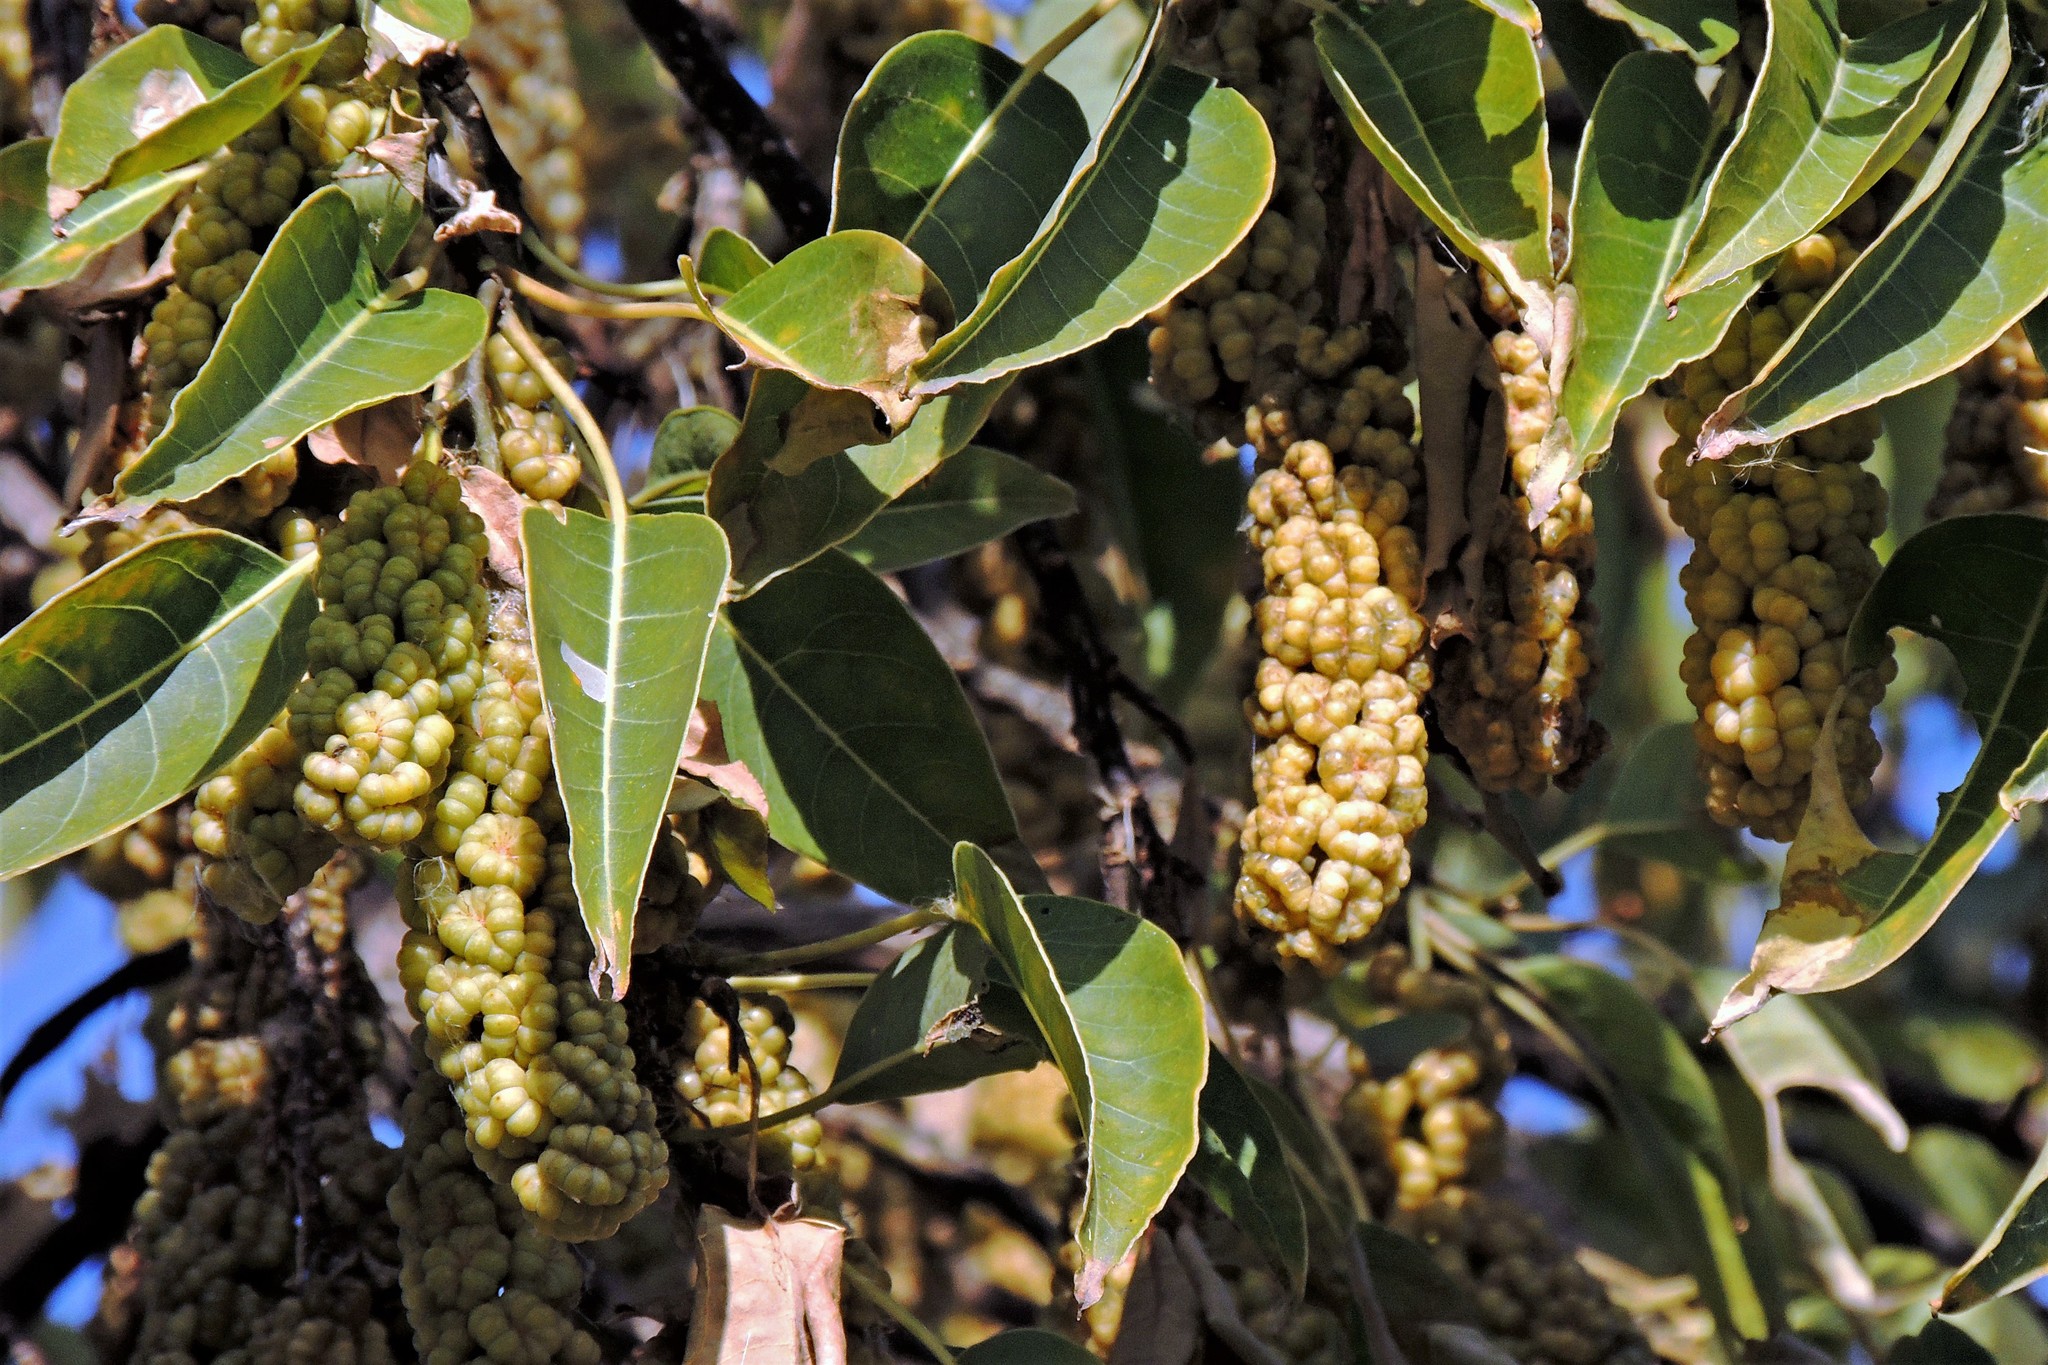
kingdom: Plantae
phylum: Tracheophyta
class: Magnoliopsida
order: Caryophyllales
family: Phytolaccaceae
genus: Phytolacca
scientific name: Phytolacca dioica
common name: Pokeweed
